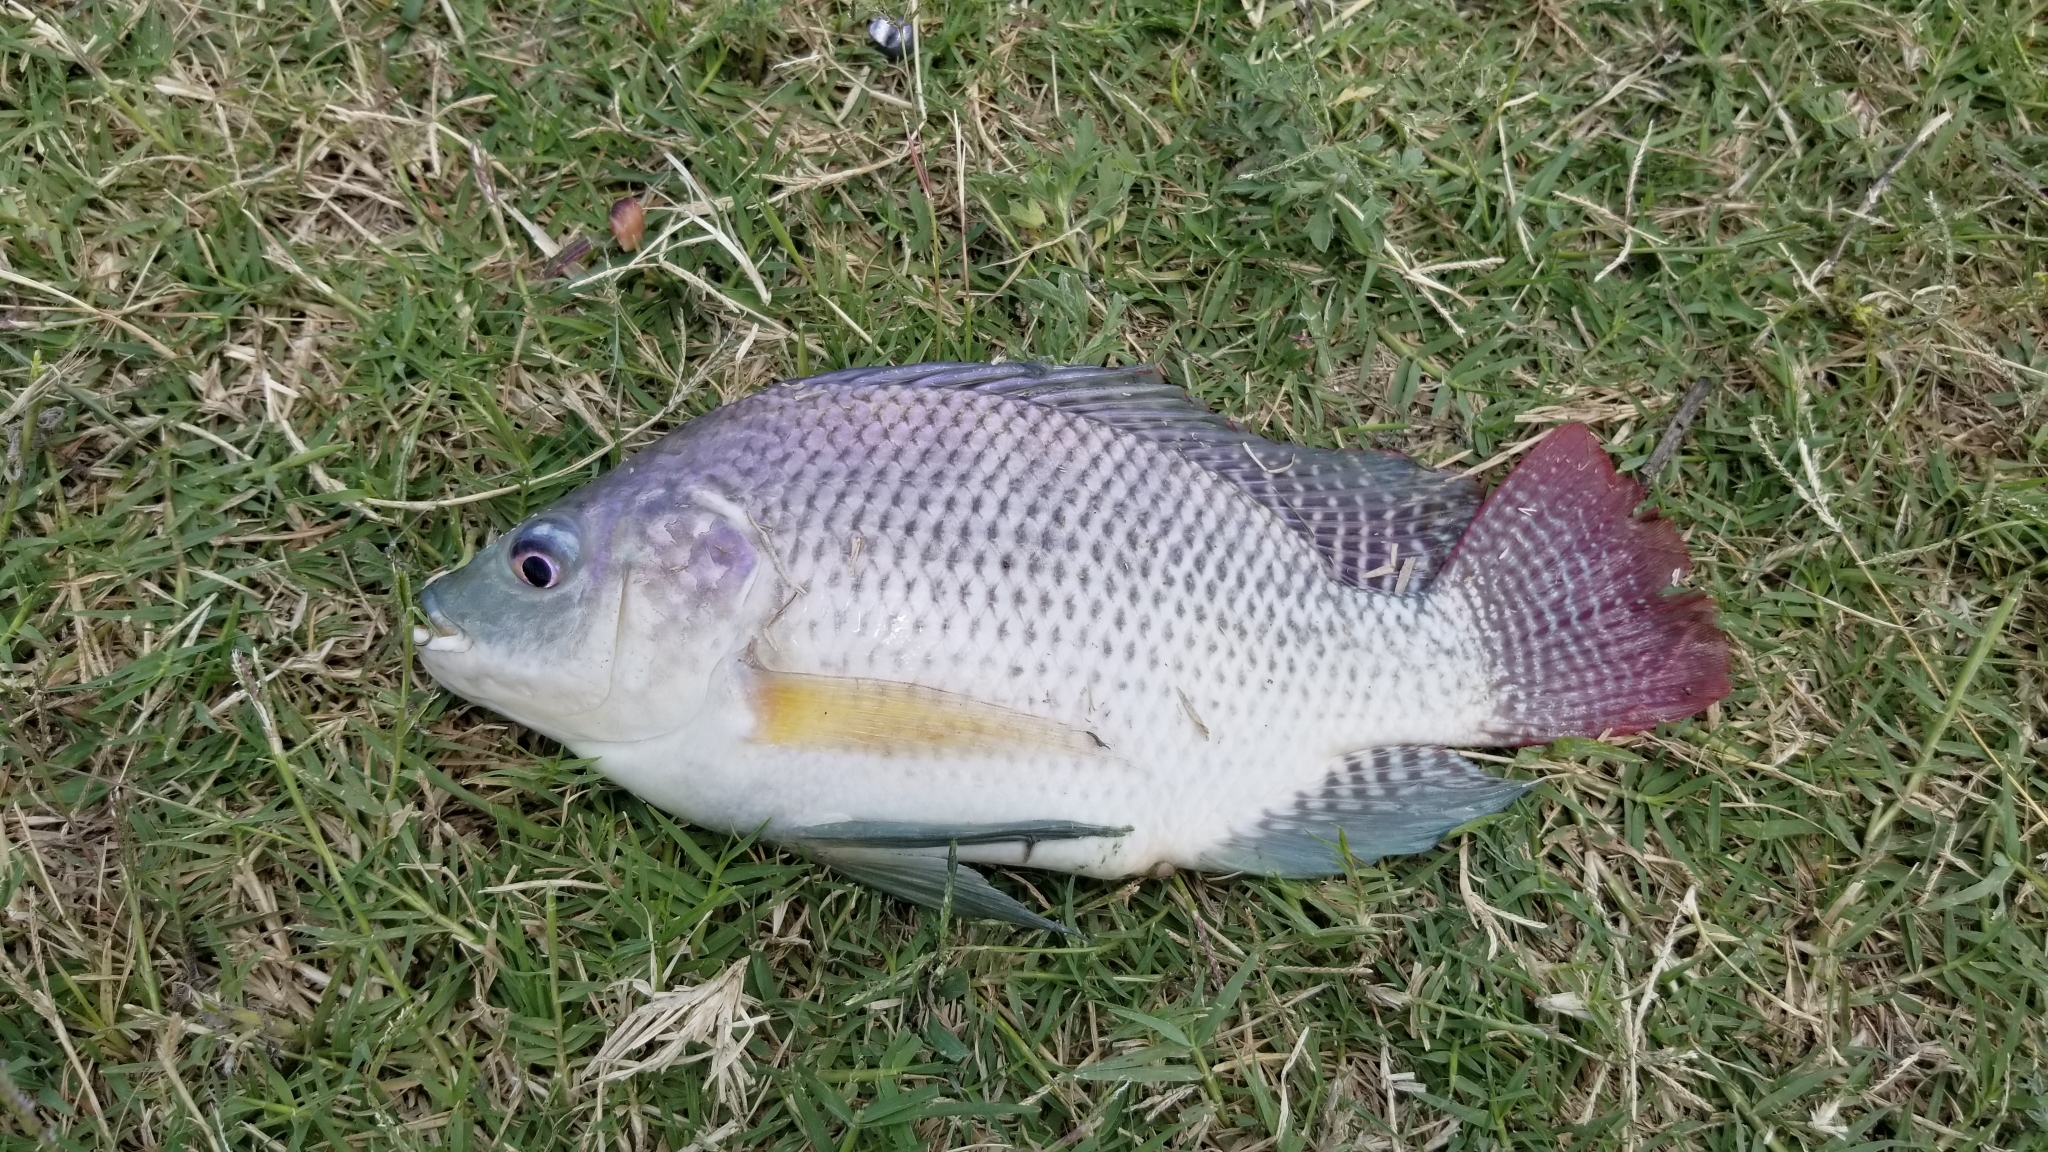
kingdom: Animalia
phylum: Chordata
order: Perciformes
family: Cichlidae
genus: Oreochromis
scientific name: Oreochromis niloticus
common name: Nile tilapia
